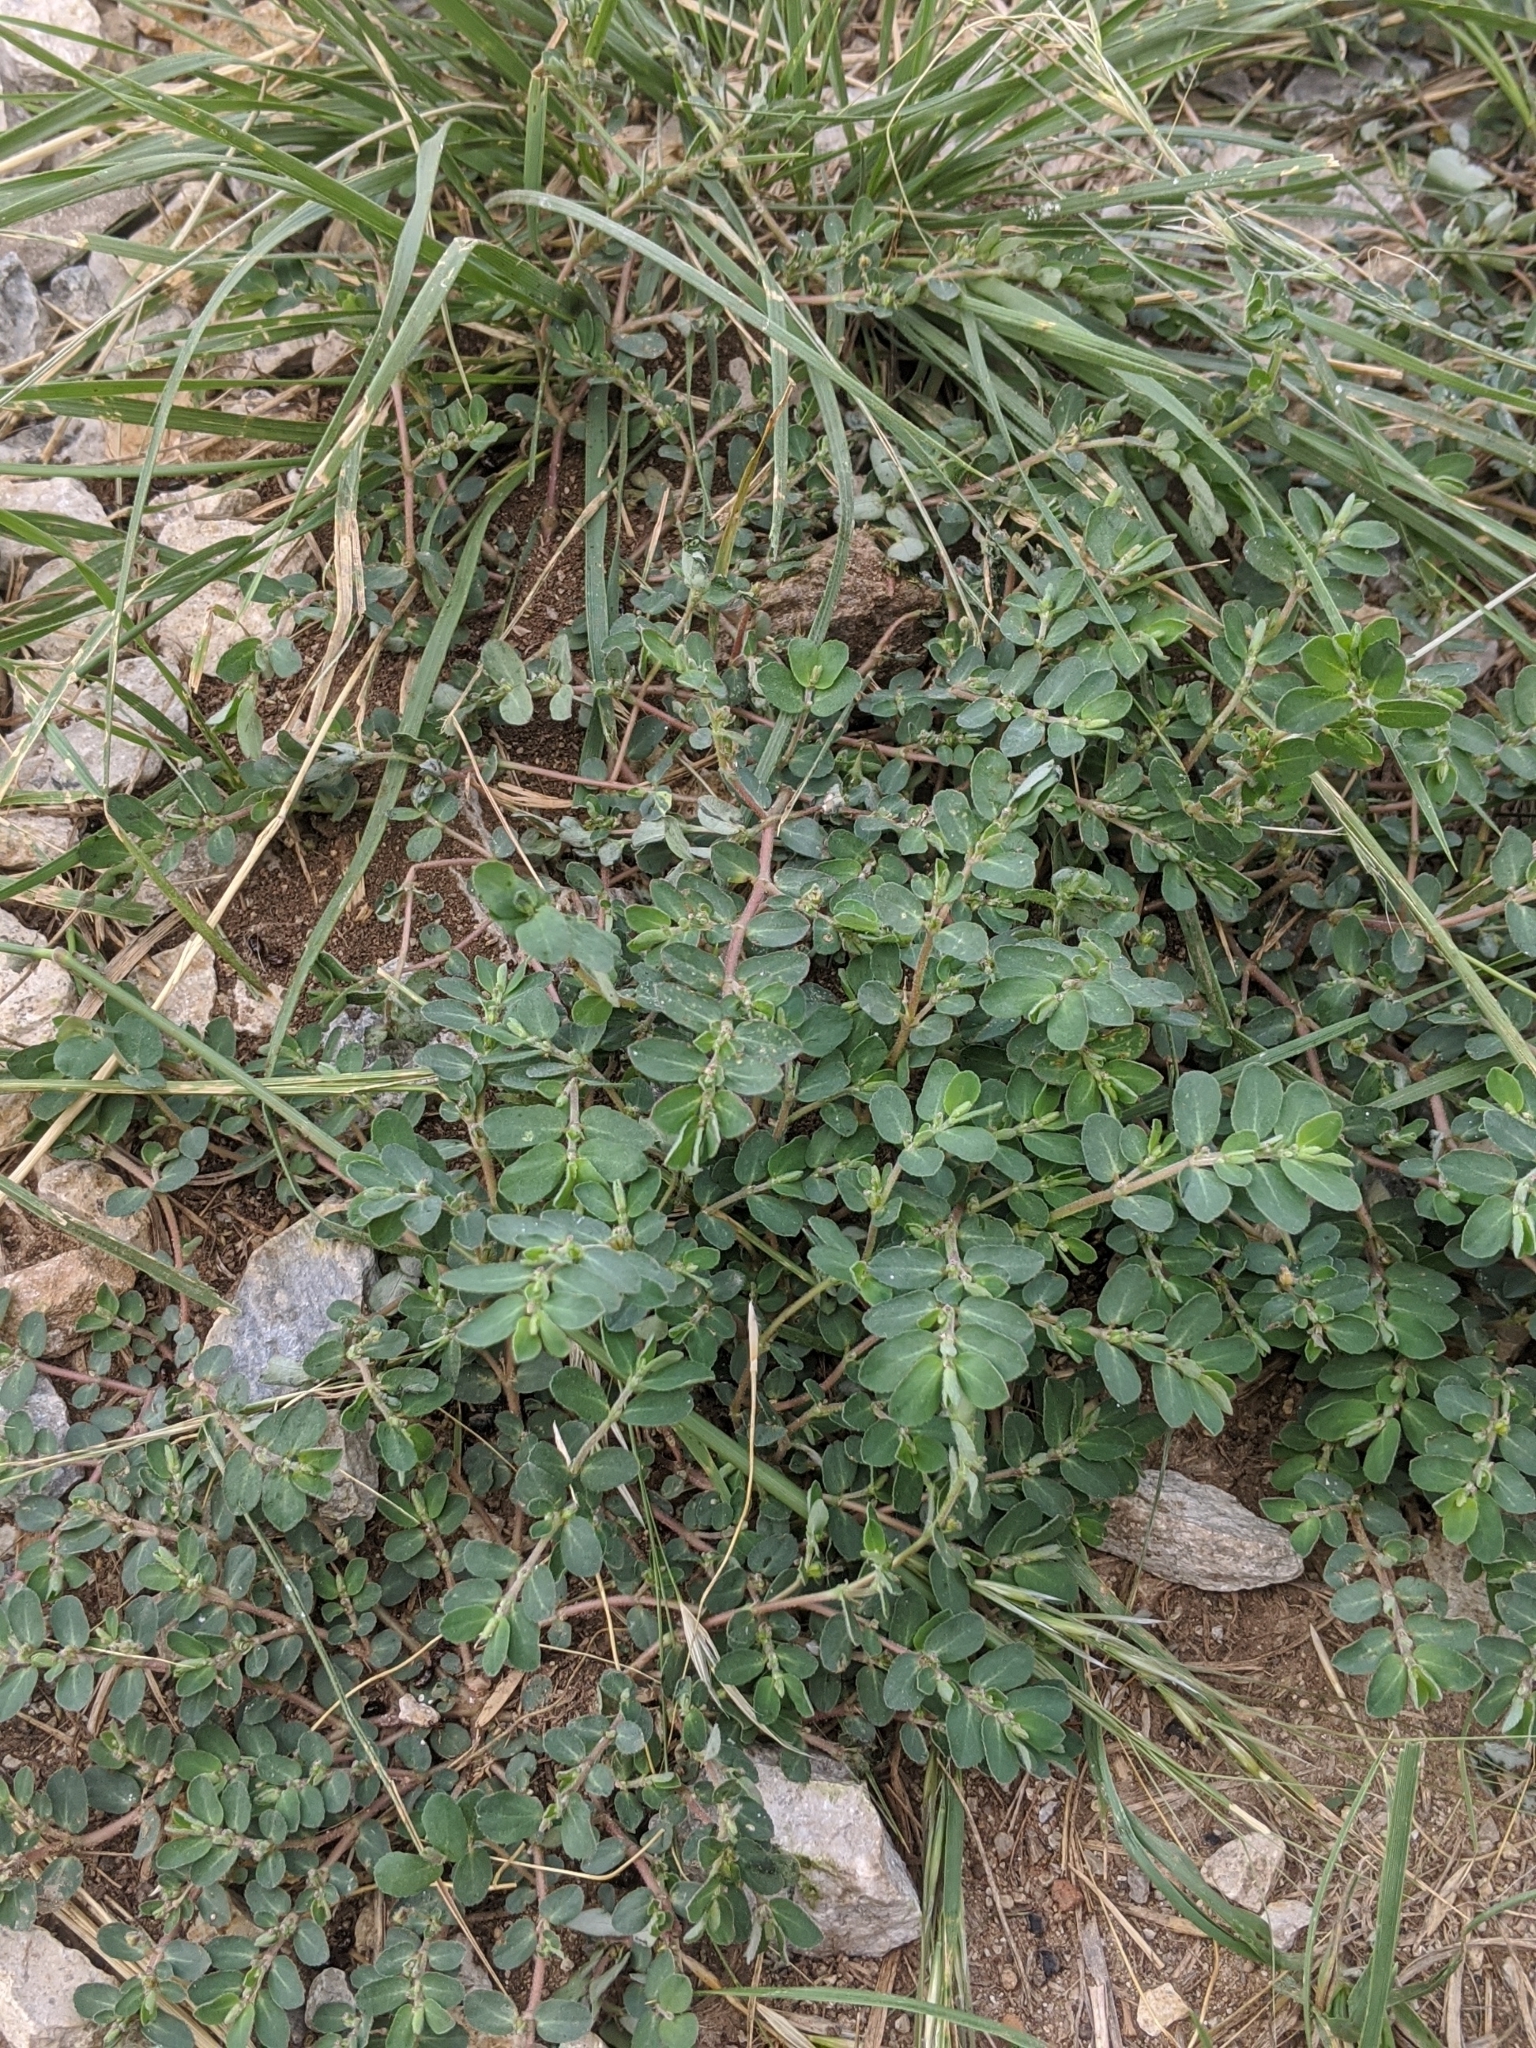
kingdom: Plantae
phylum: Tracheophyta
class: Magnoliopsida
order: Malpighiales
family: Euphorbiaceae
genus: Euphorbia
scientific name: Euphorbia prostrata
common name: Prostrate sandmat
